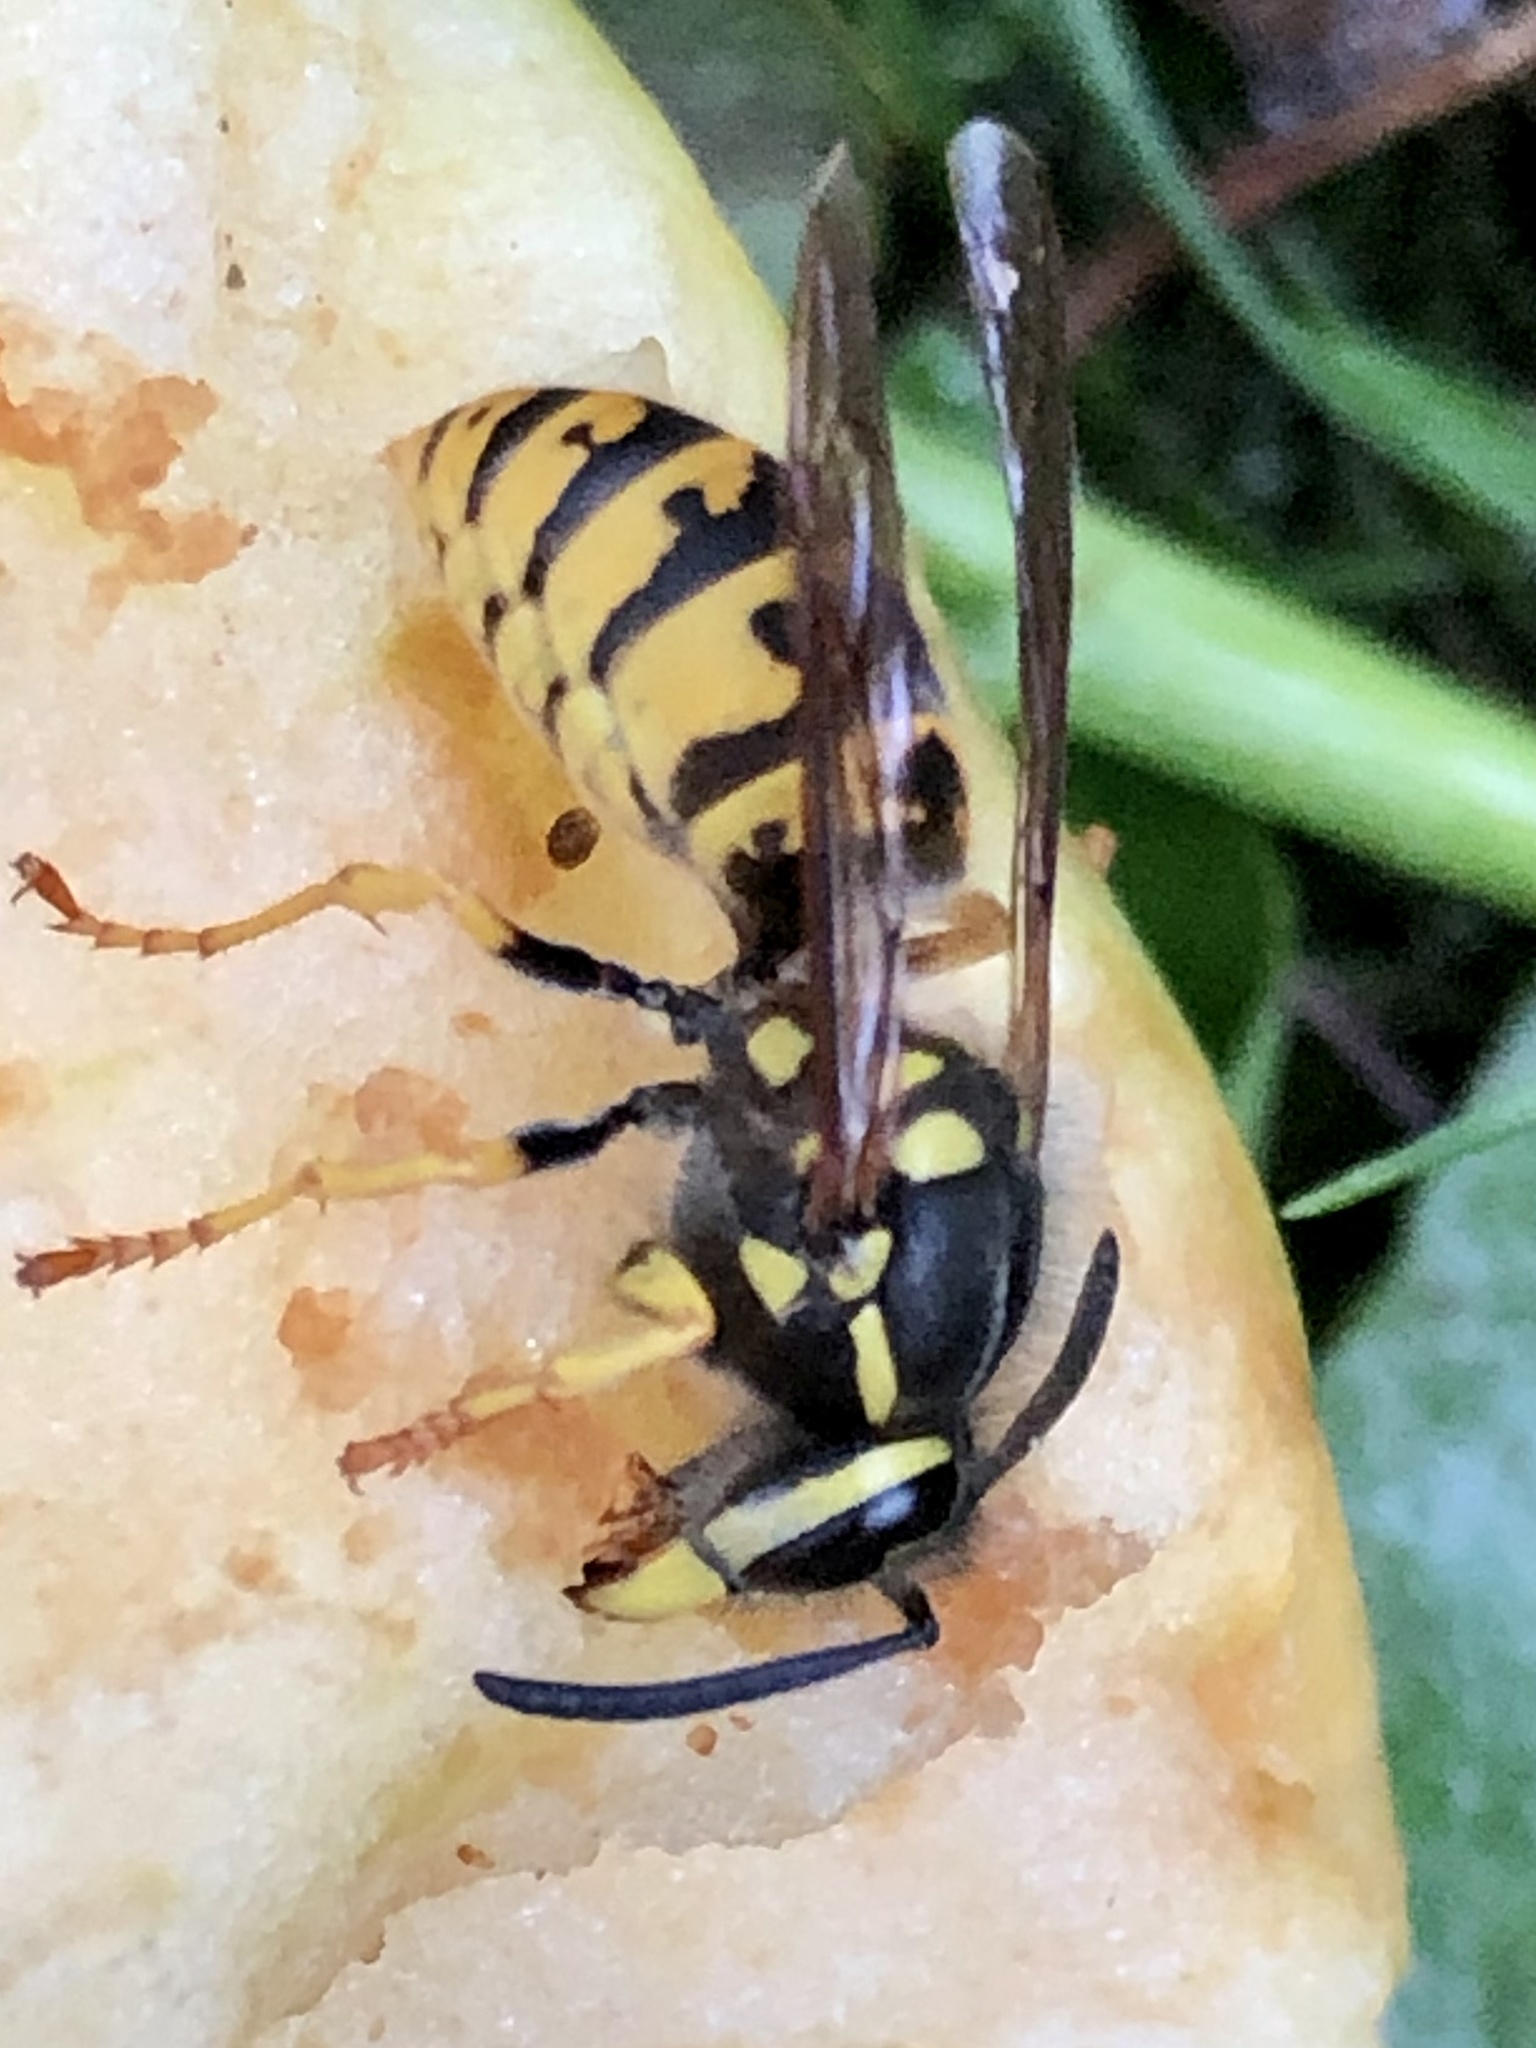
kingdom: Animalia
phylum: Arthropoda
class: Insecta
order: Hymenoptera
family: Vespidae
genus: Vespula
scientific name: Vespula germanica
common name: German wasp
